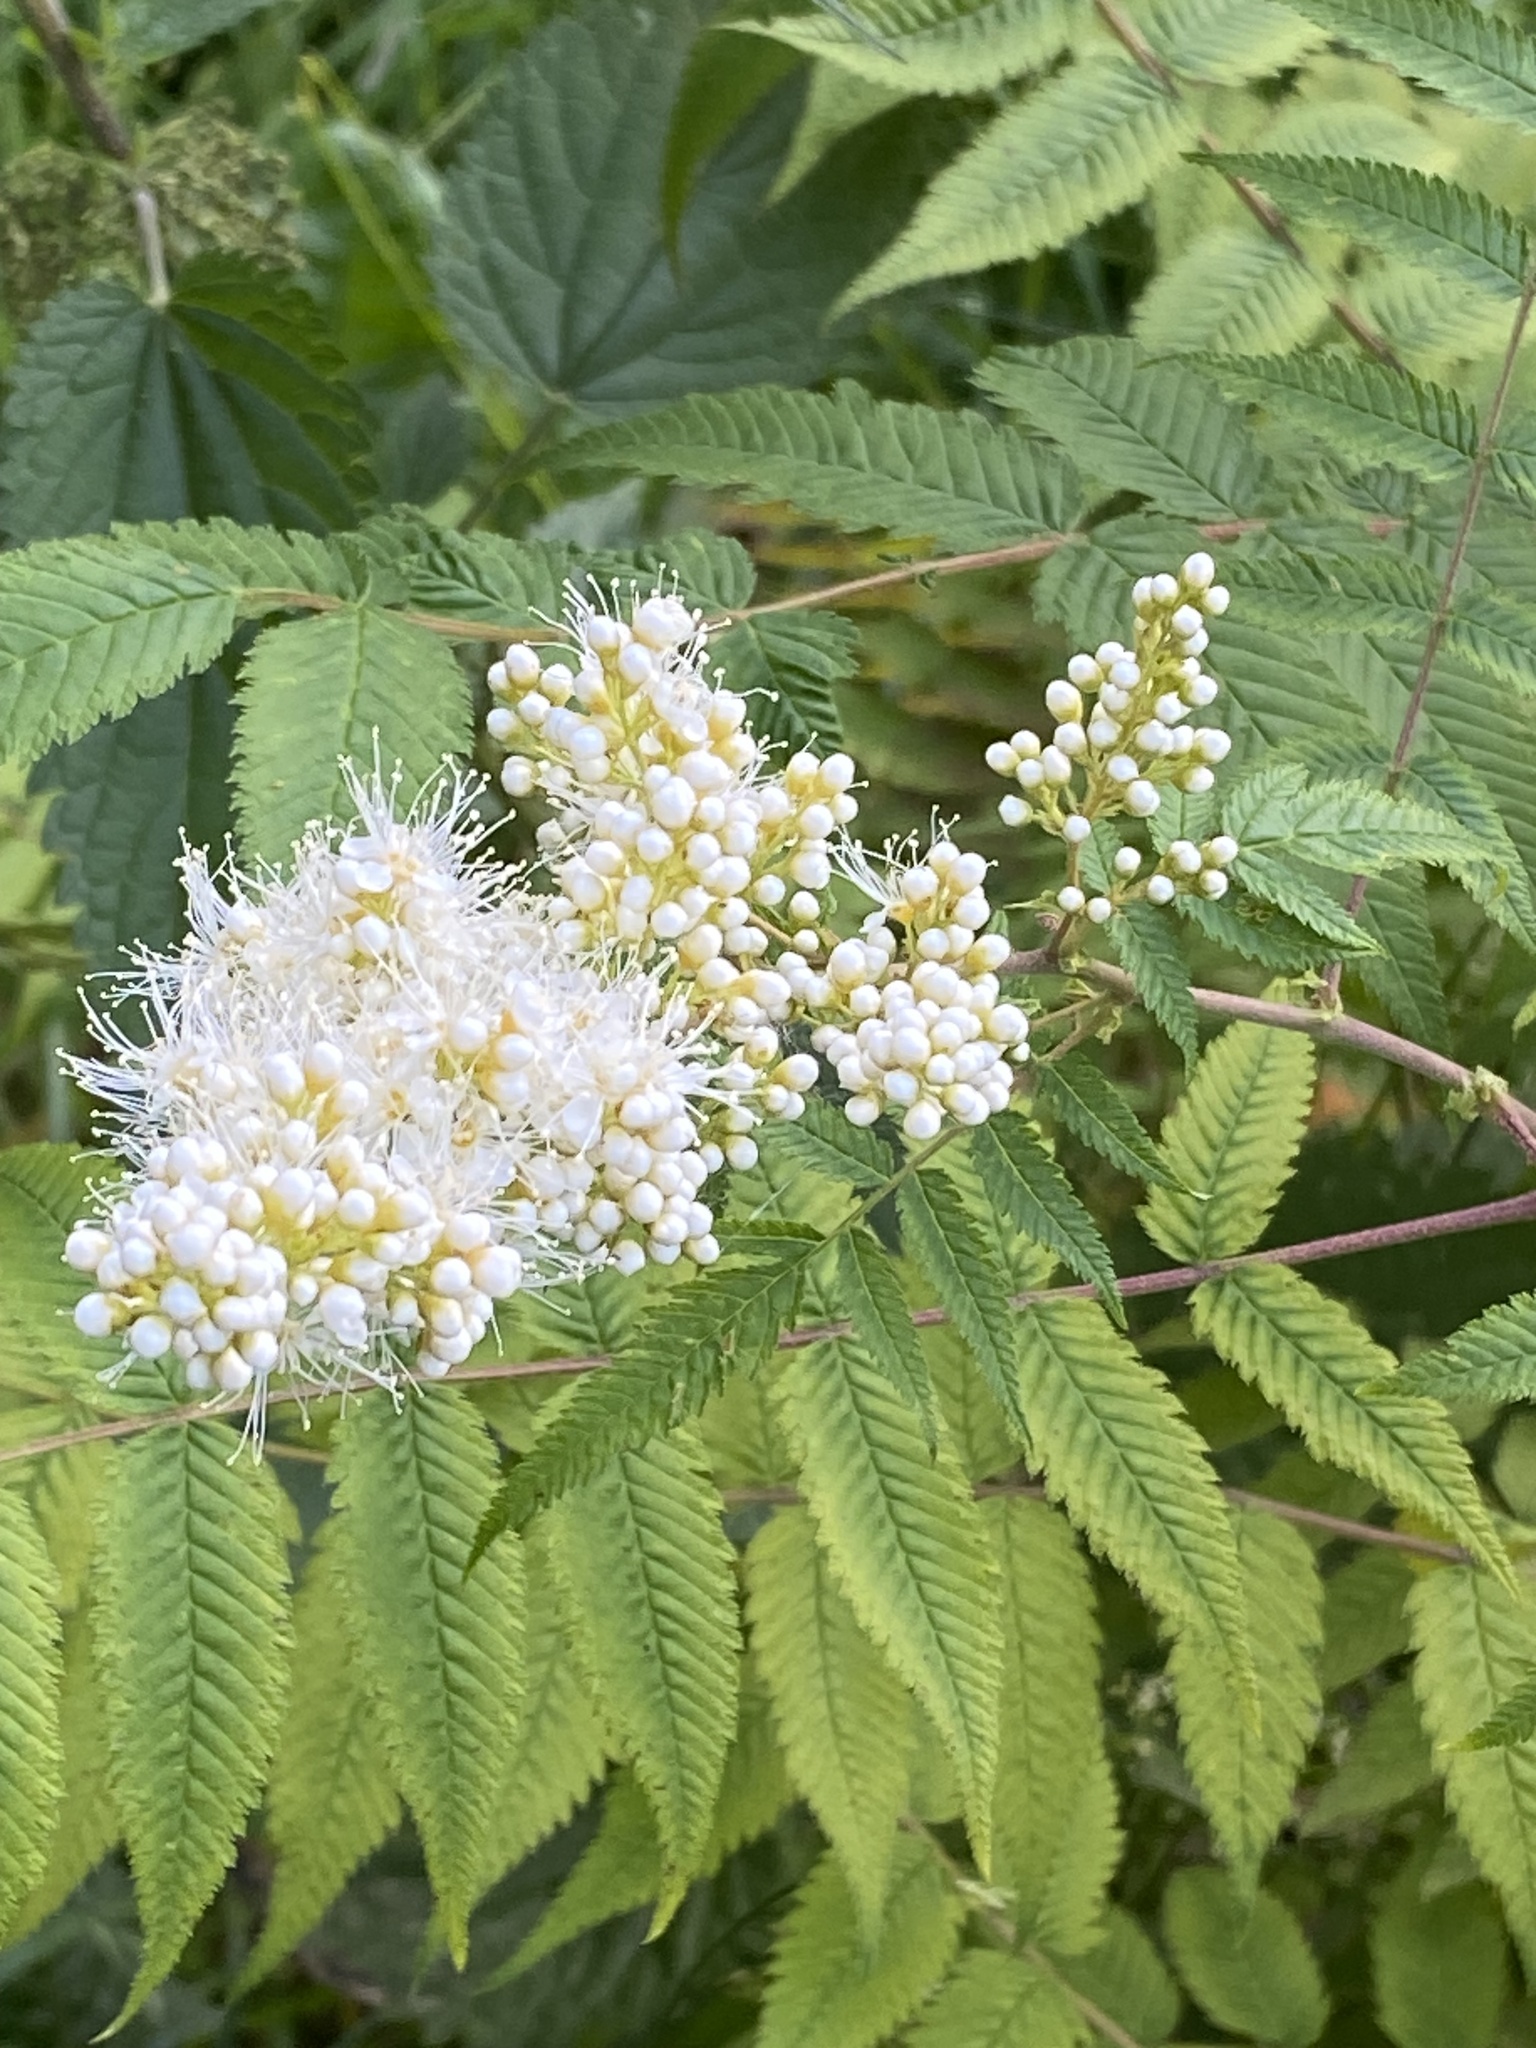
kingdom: Plantae
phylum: Tracheophyta
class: Magnoliopsida
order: Rosales
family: Rosaceae
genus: Sorbaria
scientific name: Sorbaria sorbifolia
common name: False spiraea
